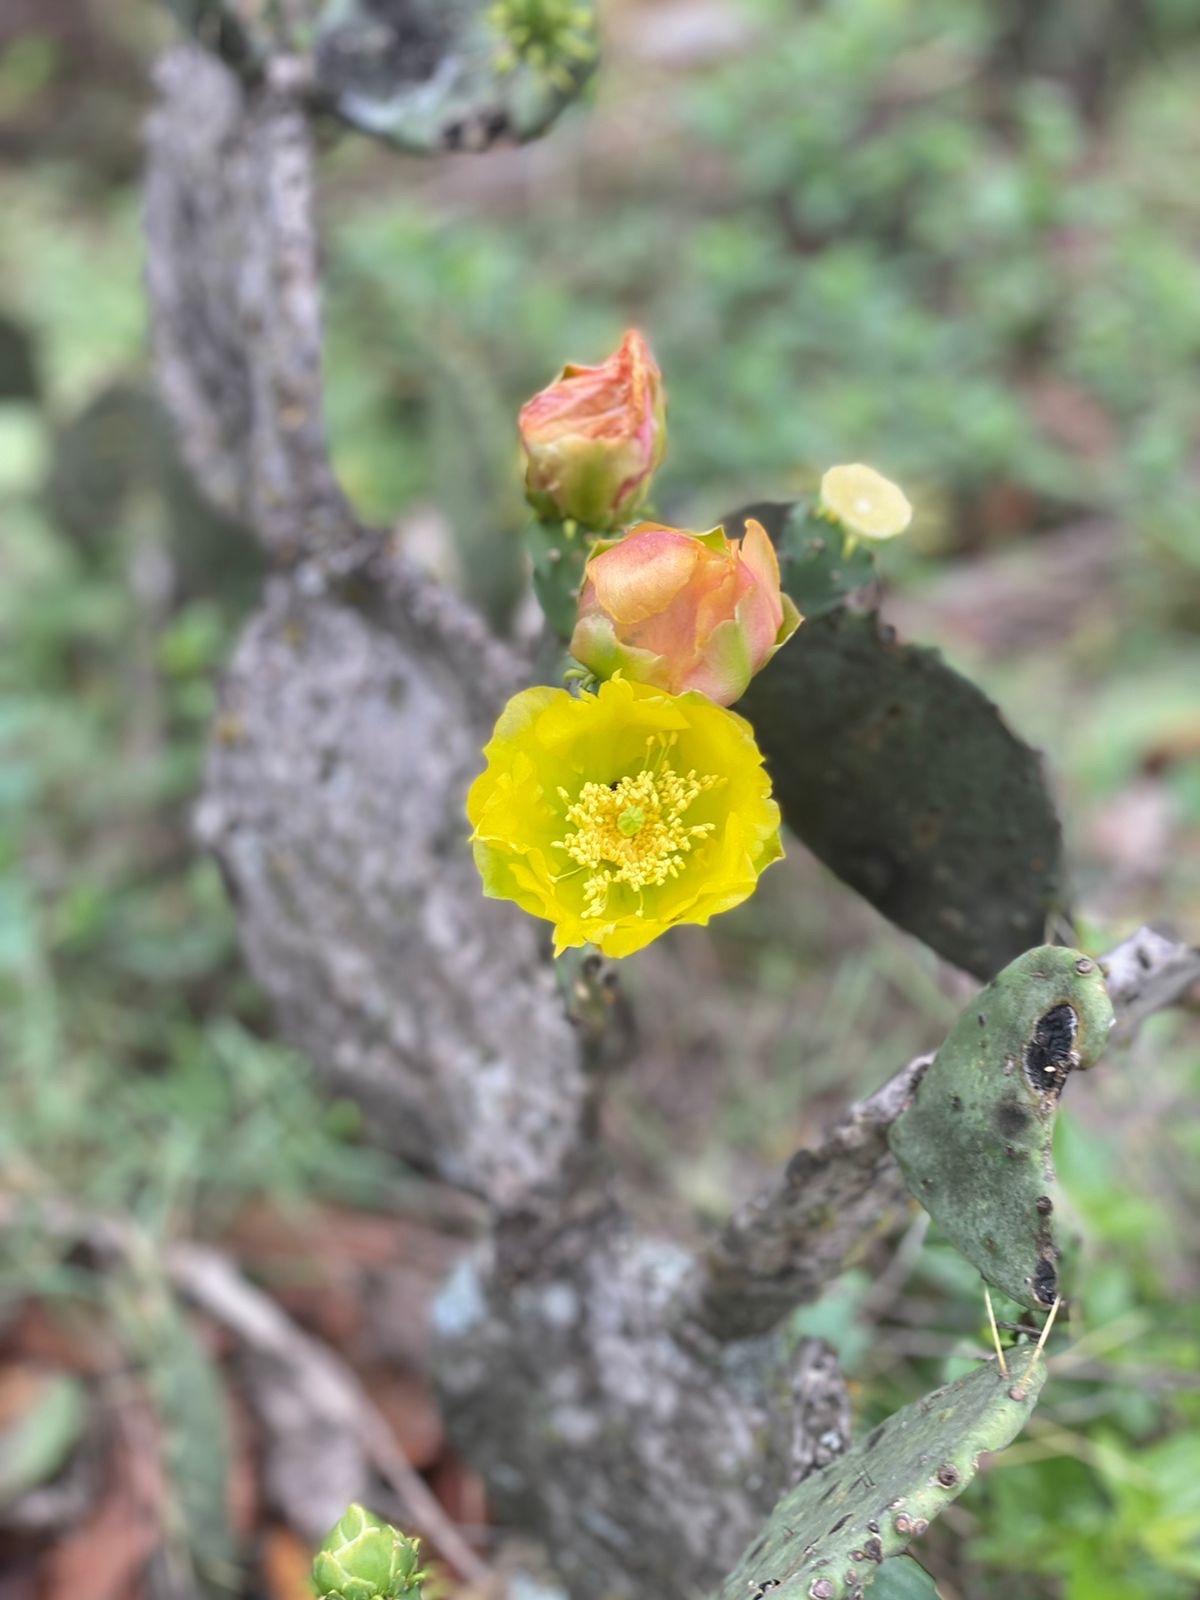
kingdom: Plantae
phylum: Tracheophyta
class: Magnoliopsida
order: Caryophyllales
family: Cactaceae
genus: Opuntia
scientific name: Opuntia ficus-indica
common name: Barbary fig
